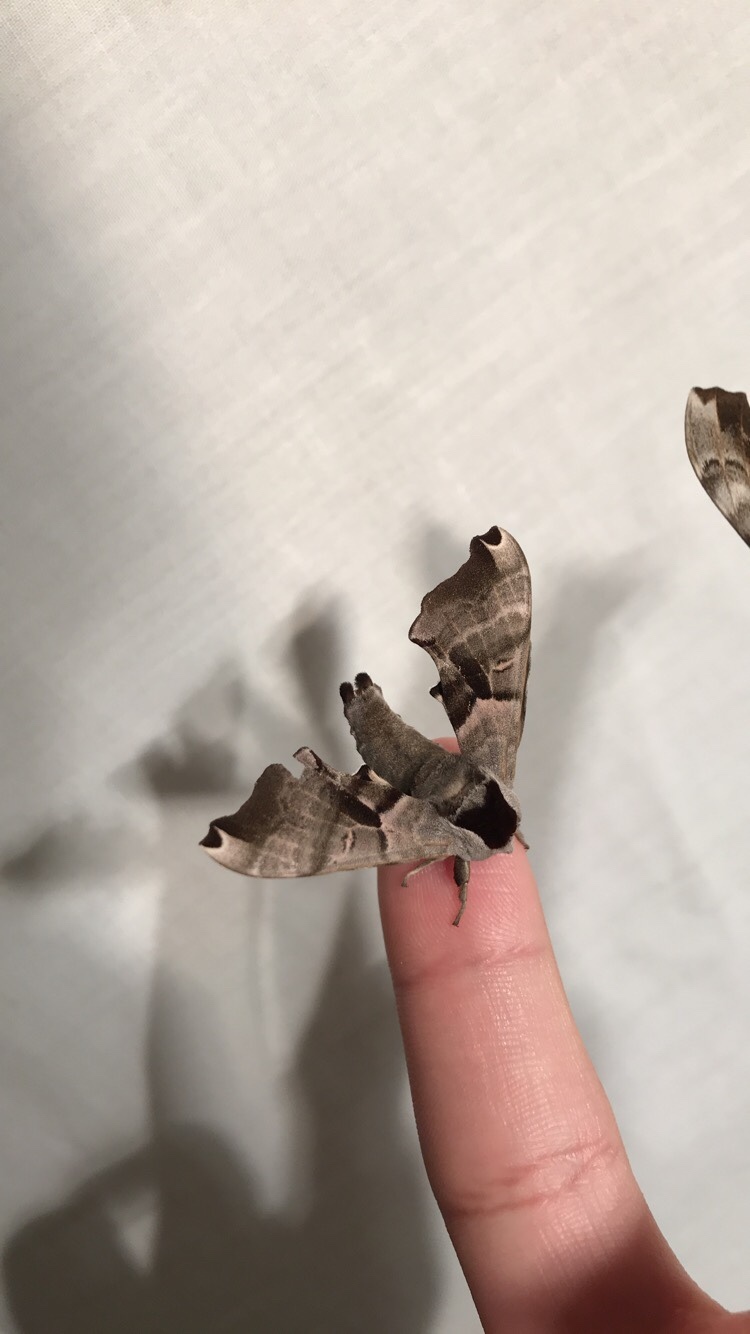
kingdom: Animalia
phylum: Arthropoda
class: Insecta
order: Lepidoptera
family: Sphingidae
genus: Smerinthus
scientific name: Smerinthus jamaicensis
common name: Twin spotted sphinx
